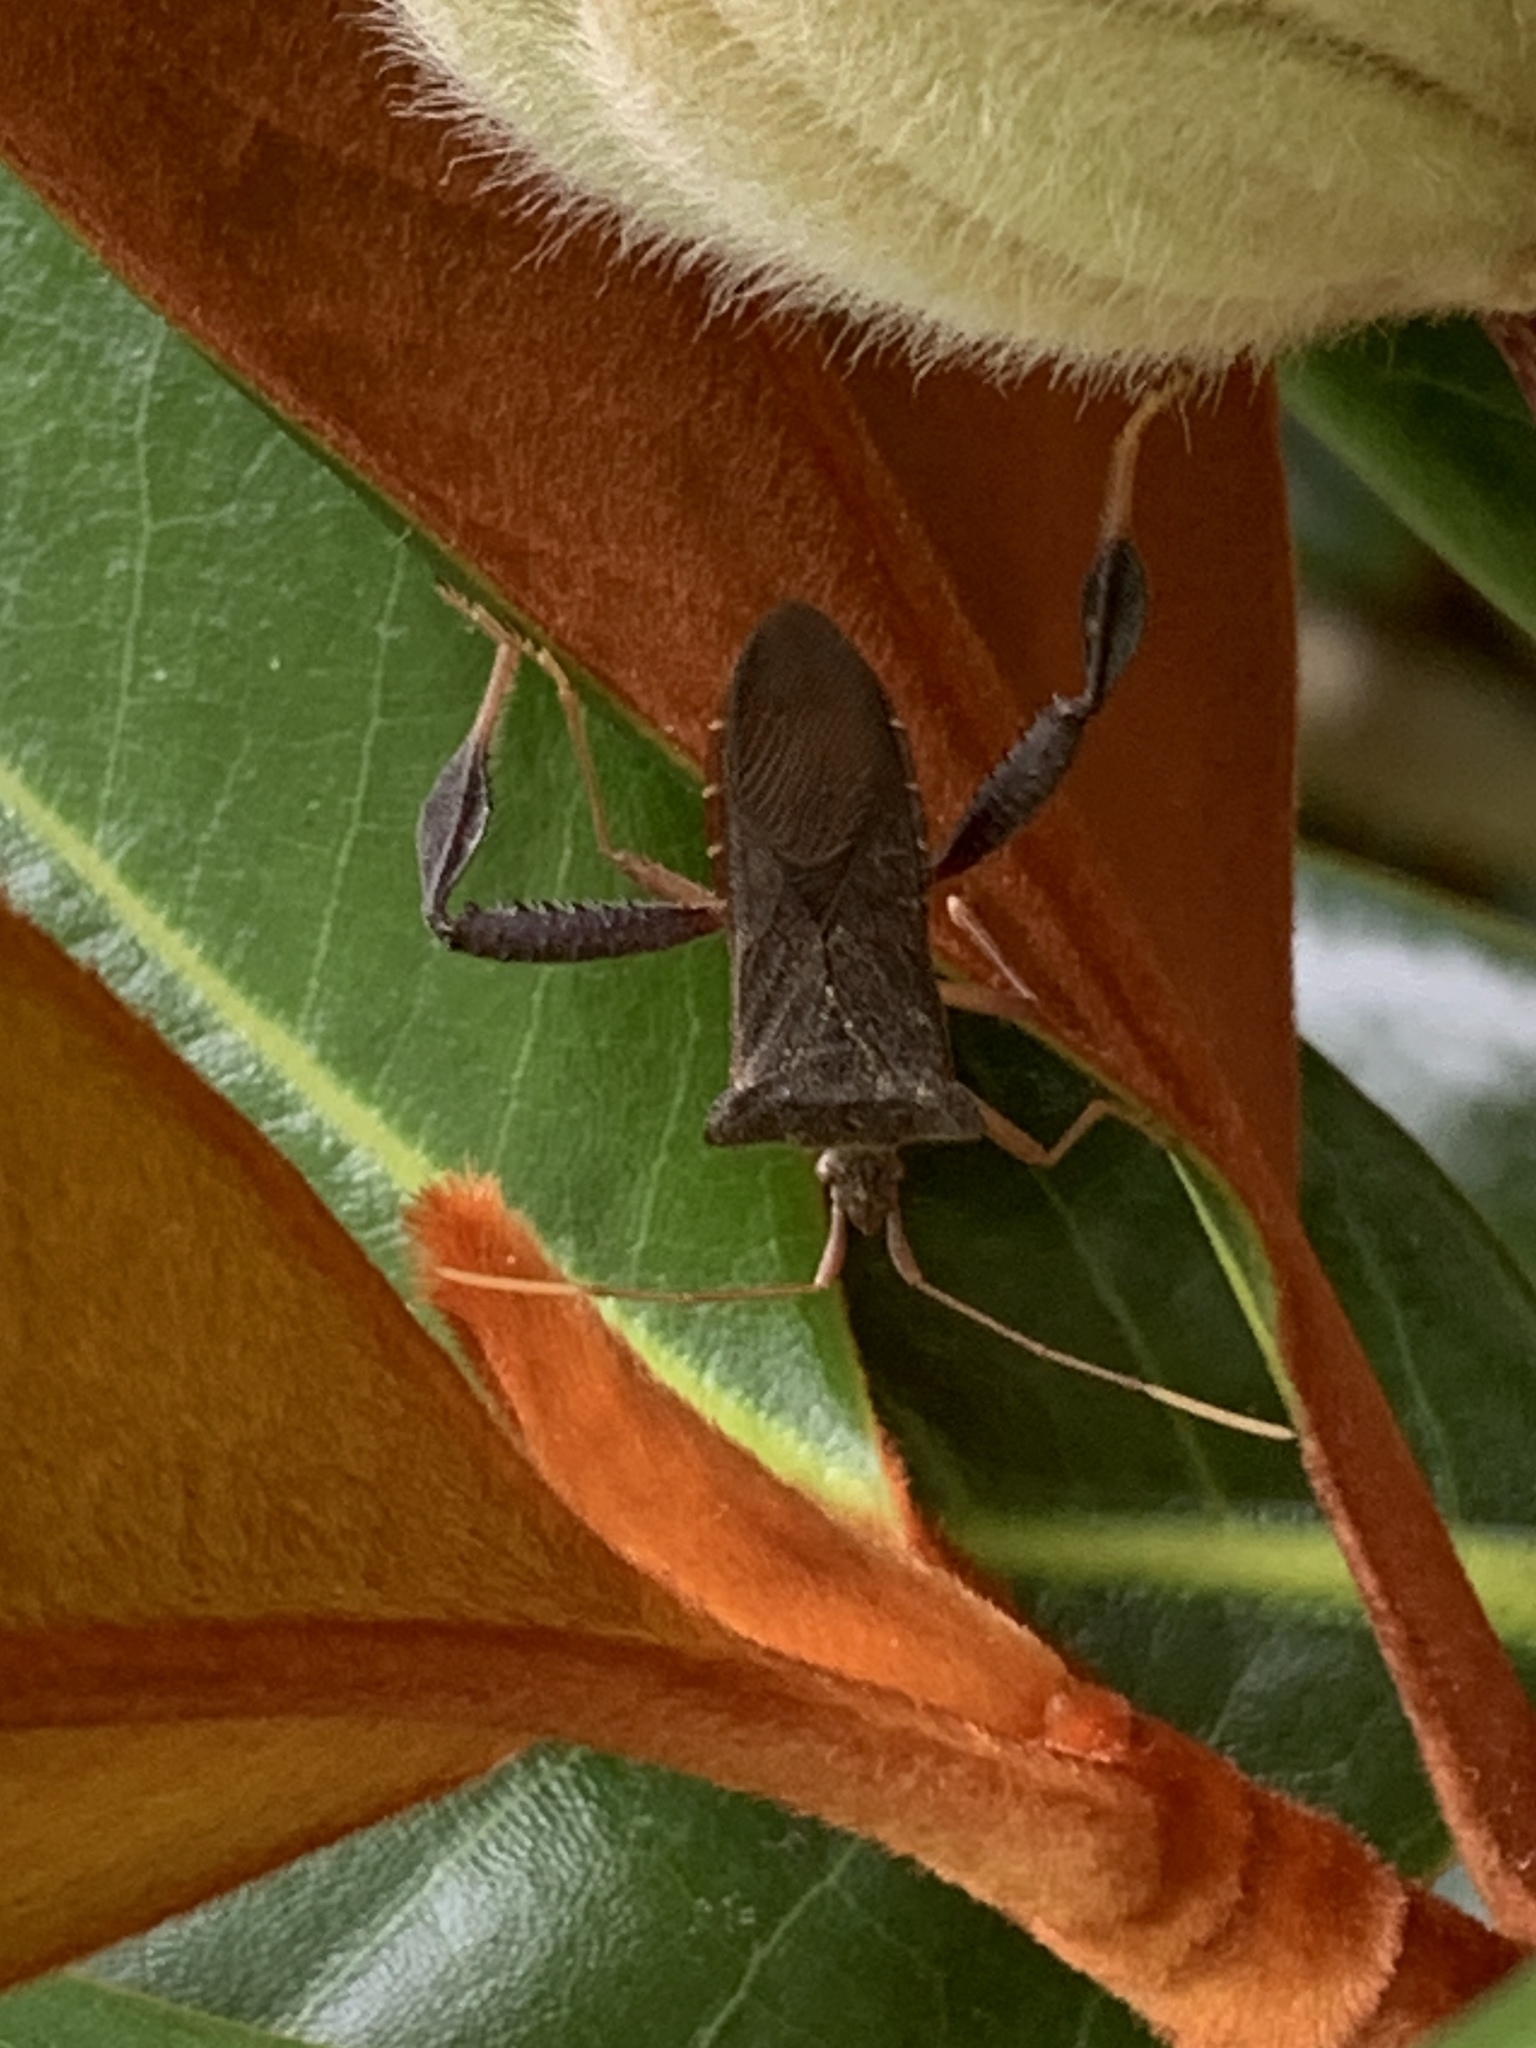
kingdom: Animalia
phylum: Arthropoda
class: Insecta
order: Hemiptera
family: Coreidae
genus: Leptoglossus
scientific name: Leptoglossus fulvicornis
